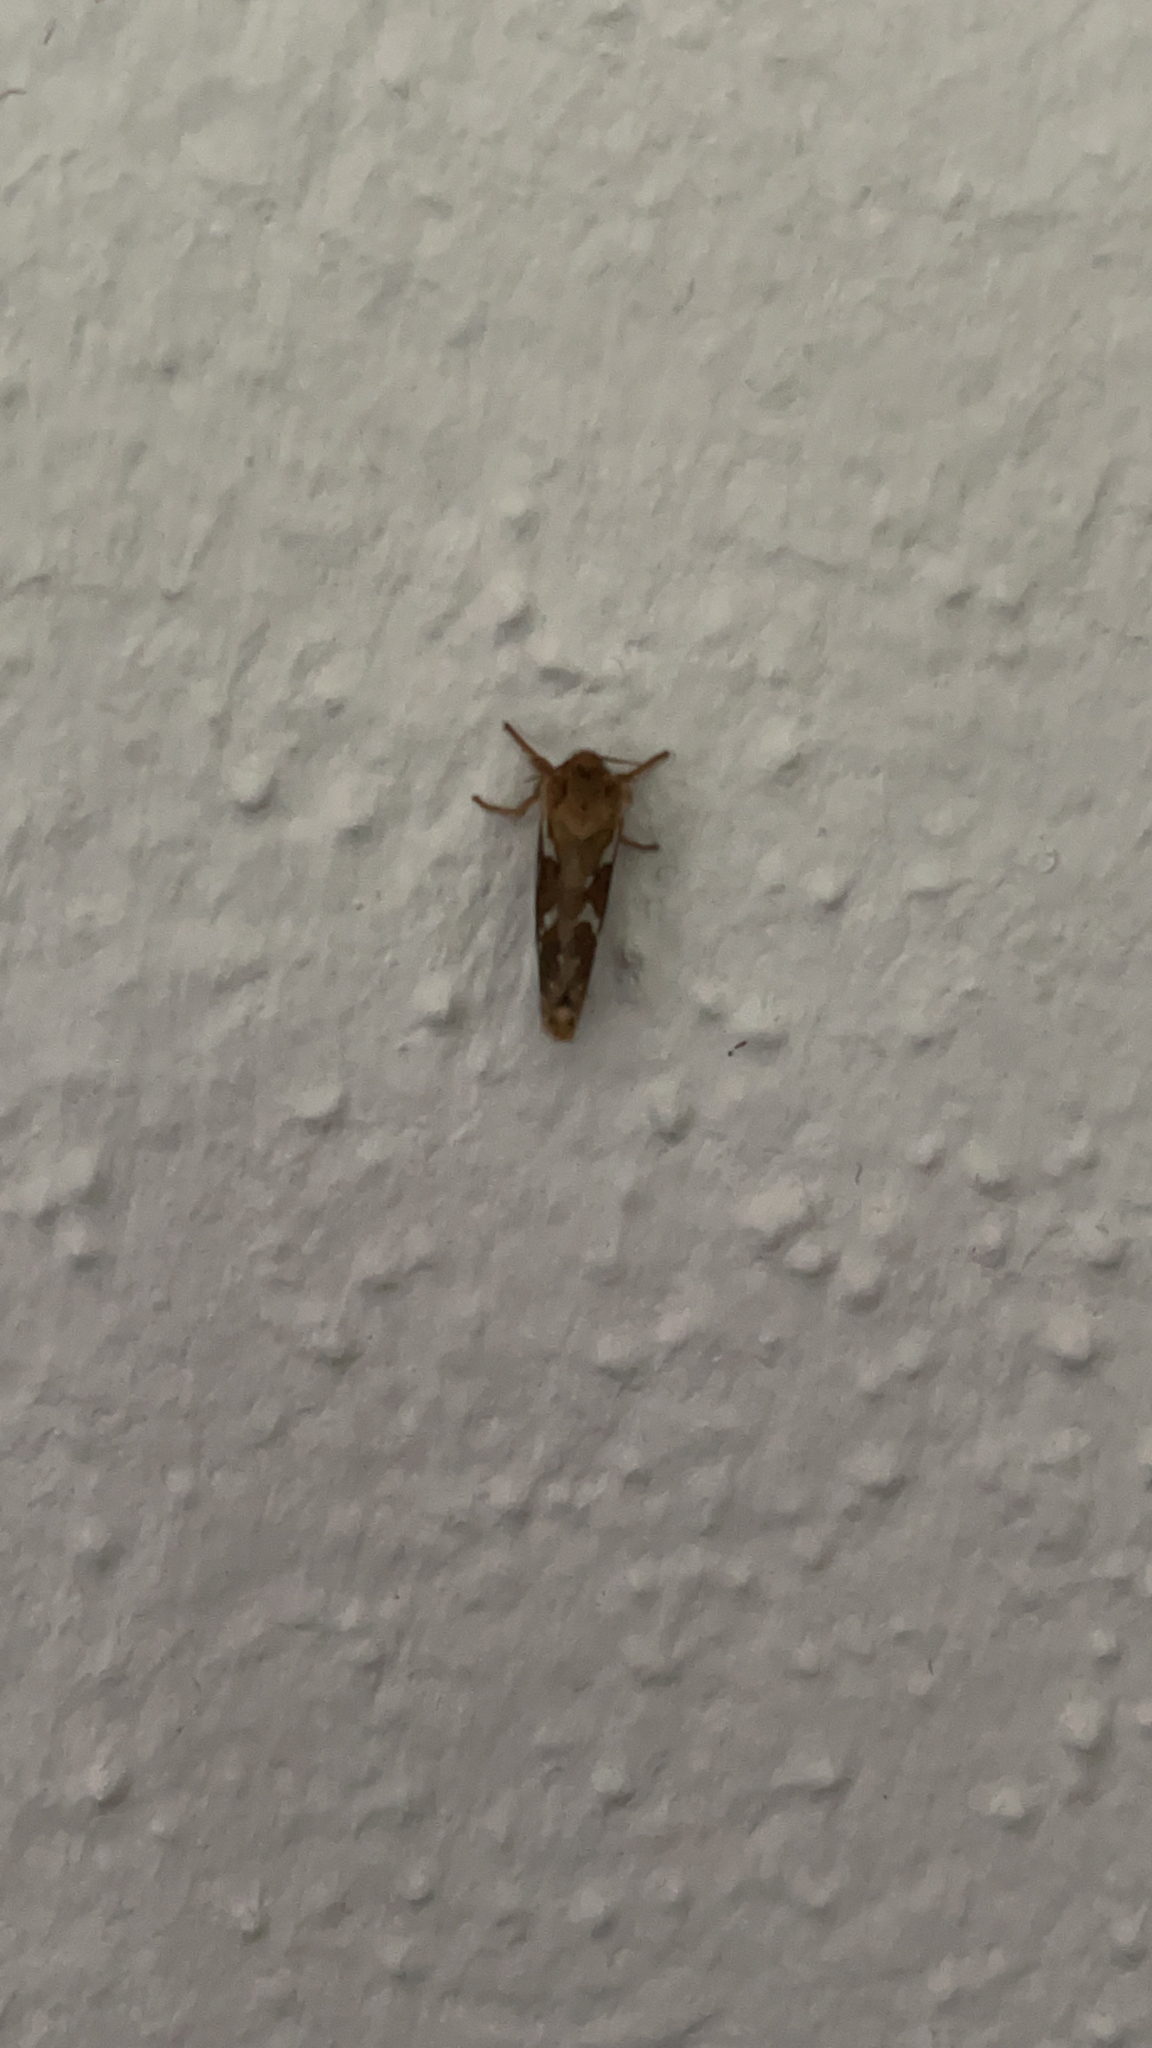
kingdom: Animalia
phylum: Arthropoda
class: Insecta
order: Lepidoptera
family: Hepialidae
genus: Korscheltellus
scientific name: Korscheltellus lupulina
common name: Common swift
